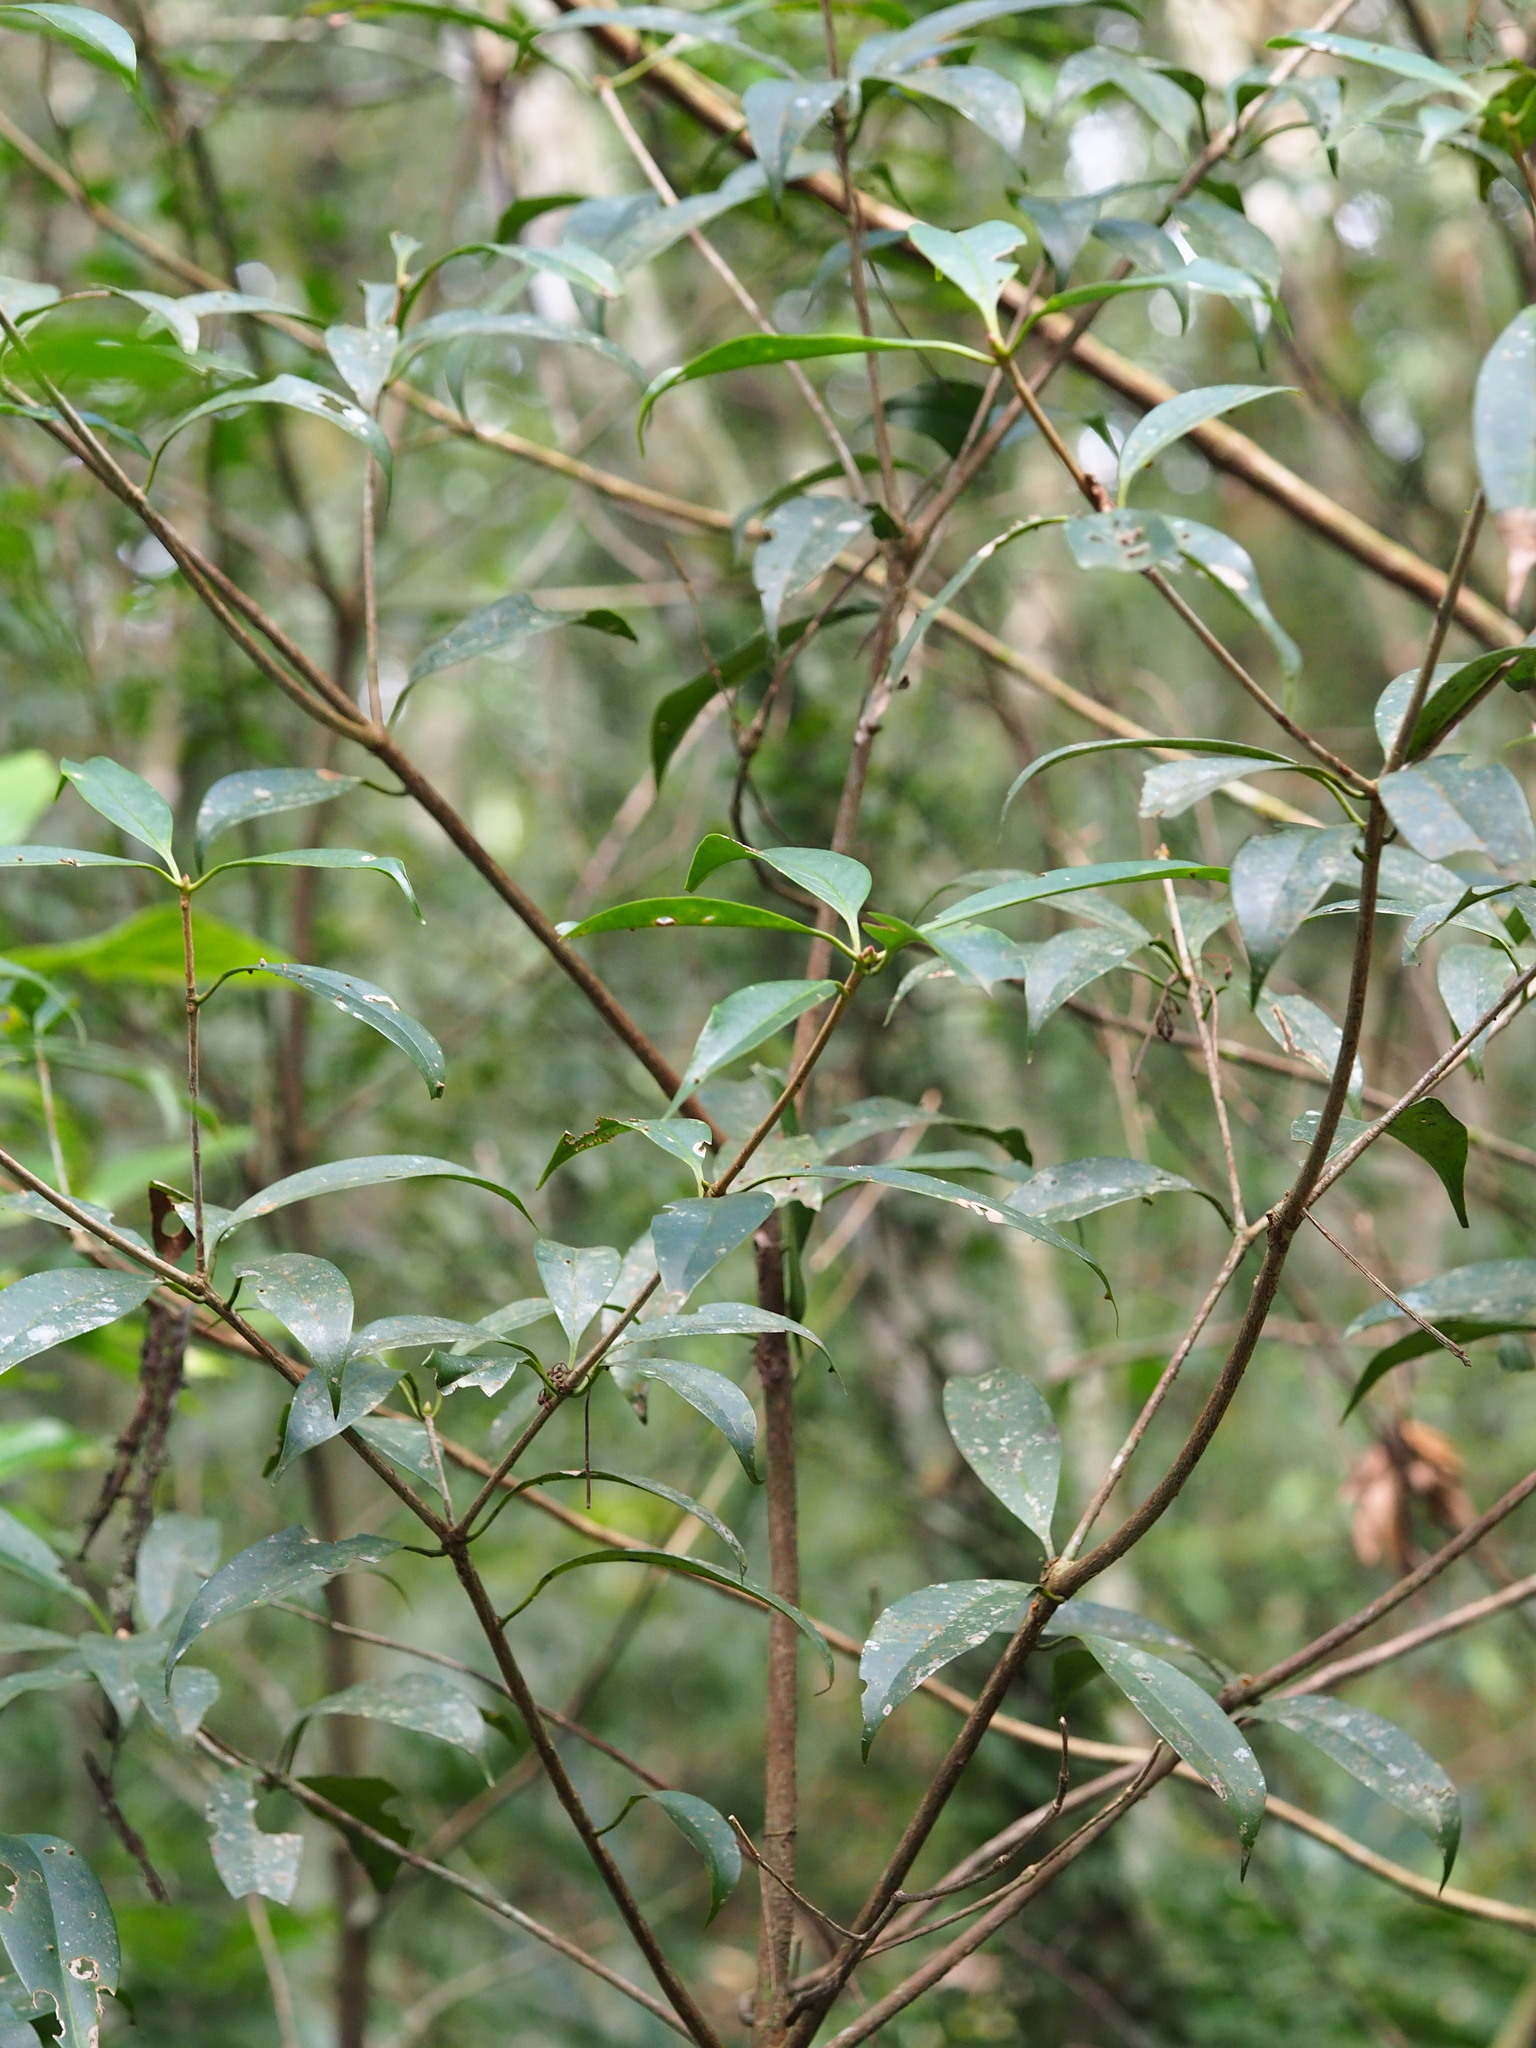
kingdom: Plantae
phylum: Tracheophyta
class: Magnoliopsida
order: Austrobaileyales
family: Schisandraceae
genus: Illicium
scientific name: Illicium arborescens
